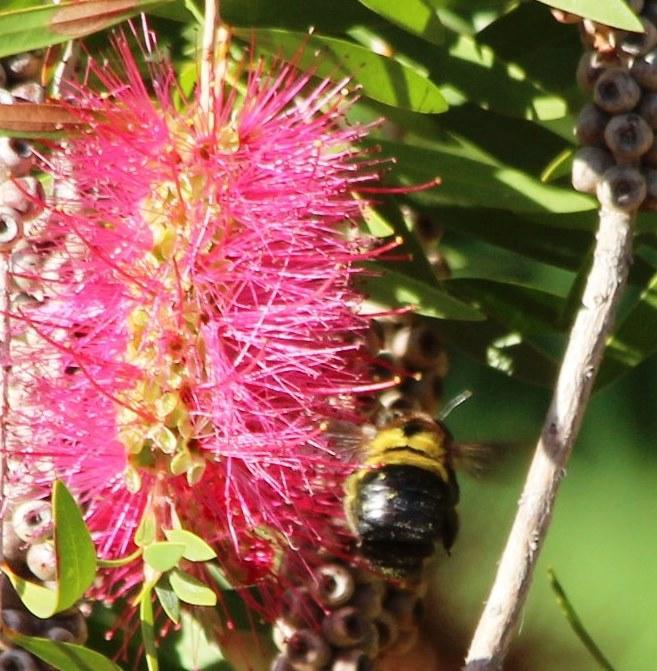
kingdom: Animalia
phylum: Arthropoda
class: Insecta
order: Hymenoptera
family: Apidae
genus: Xylocopa
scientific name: Xylocopa caffra
